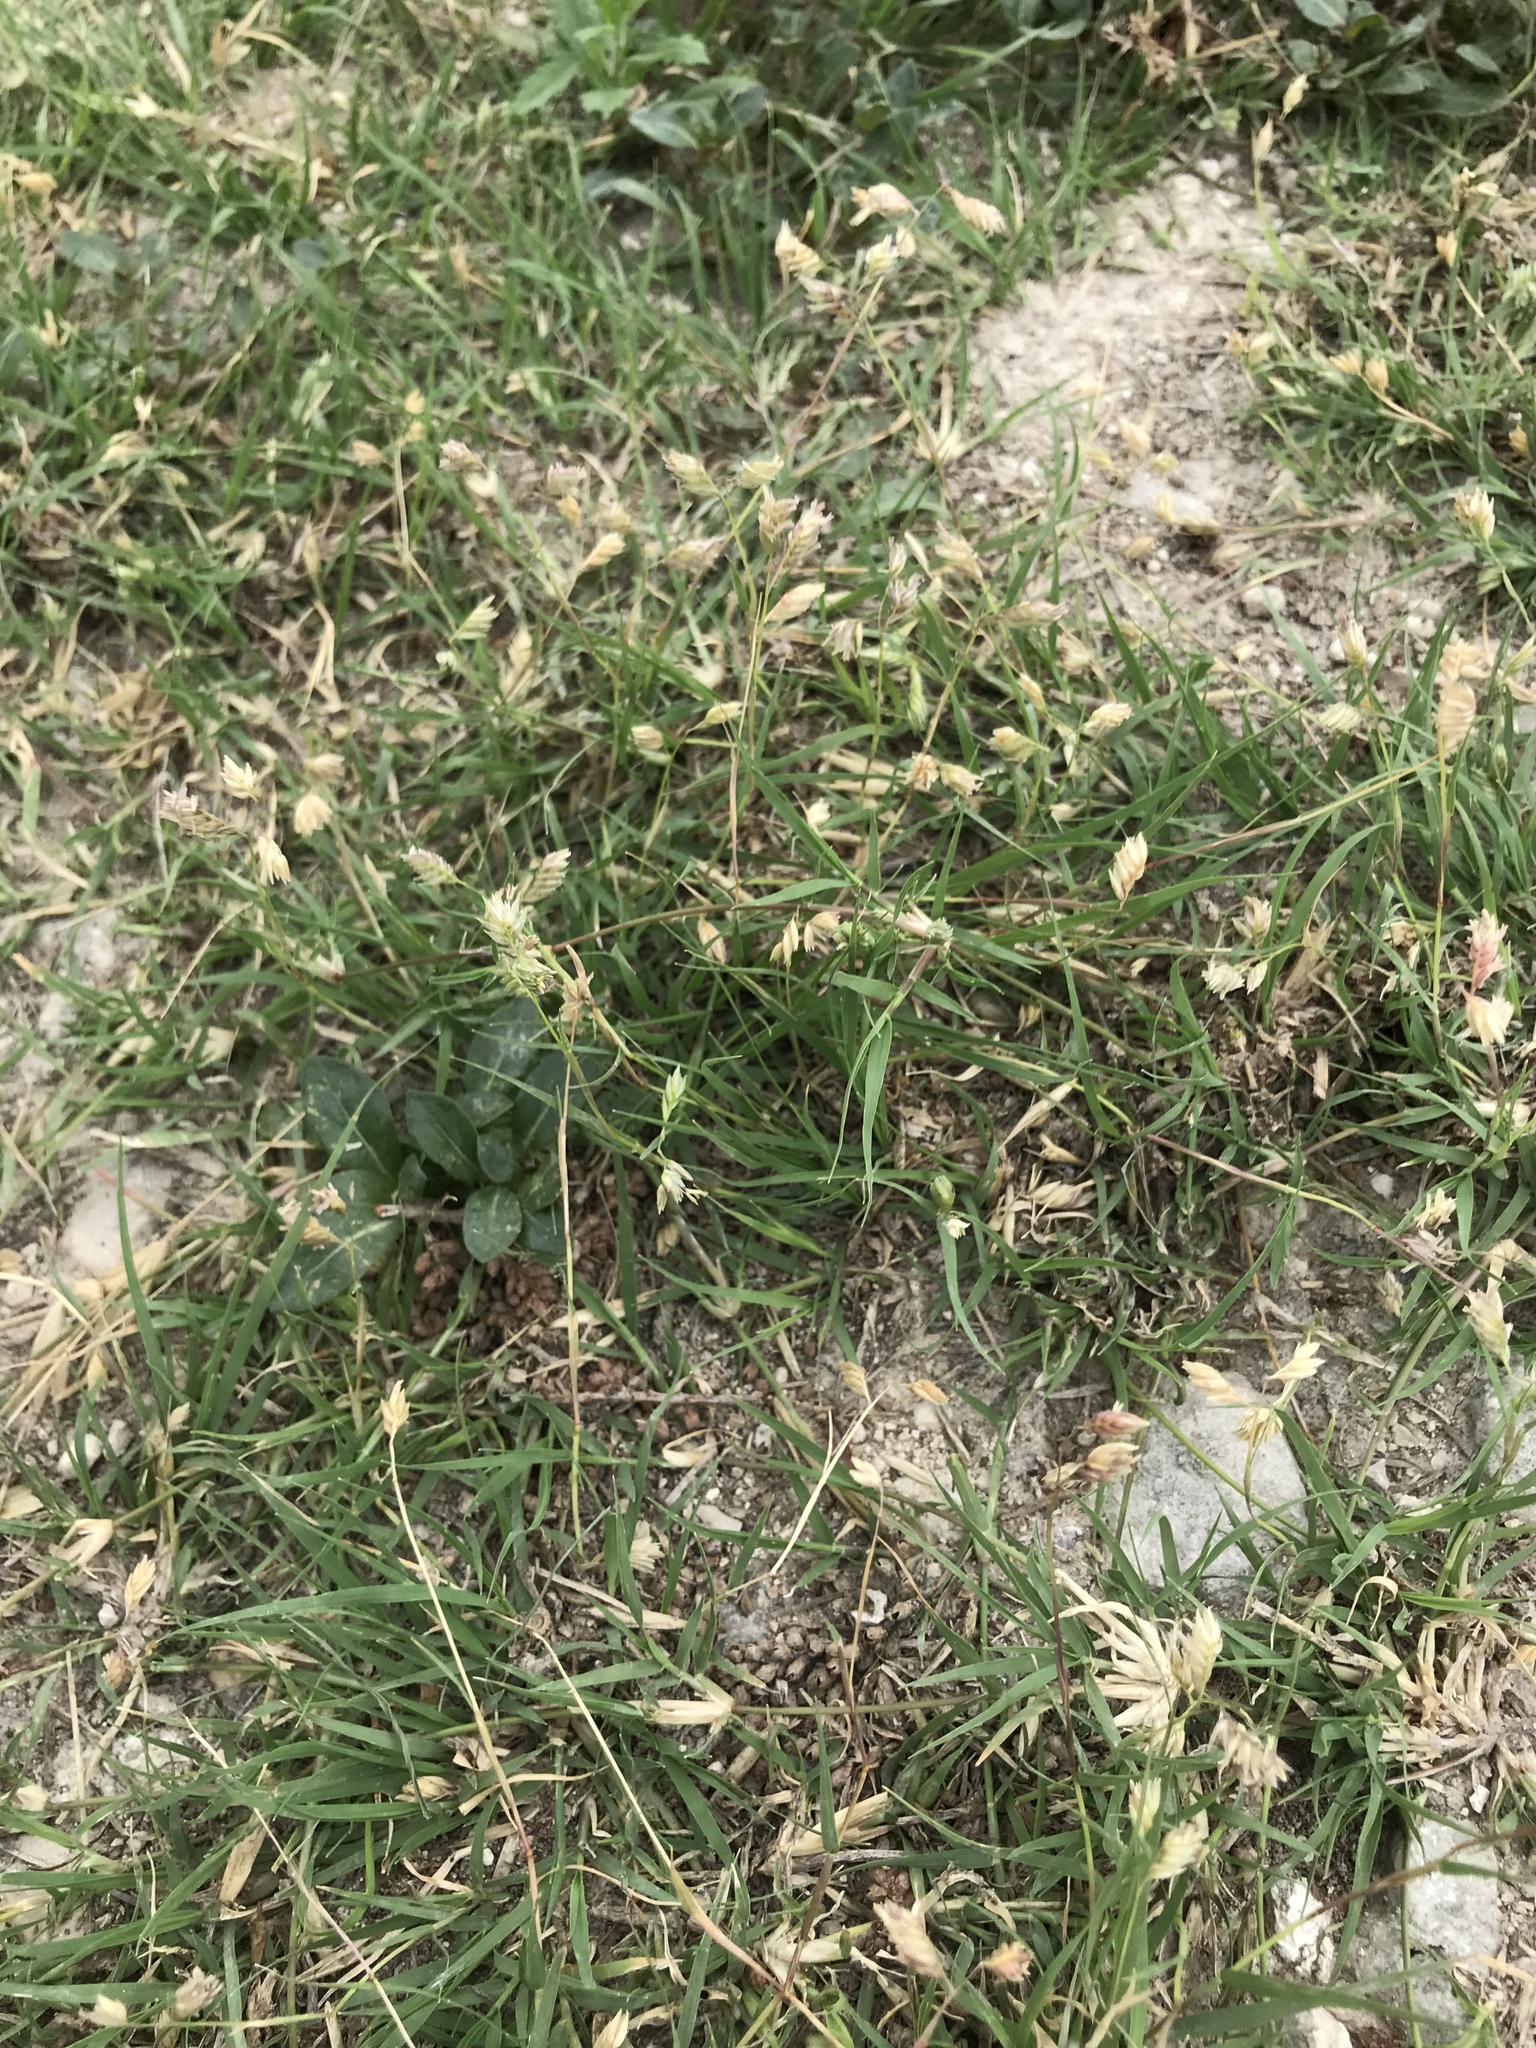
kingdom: Plantae
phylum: Tracheophyta
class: Liliopsida
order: Poales
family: Poaceae
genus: Bouteloua
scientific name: Bouteloua dactyloides
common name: Buffalo grass
